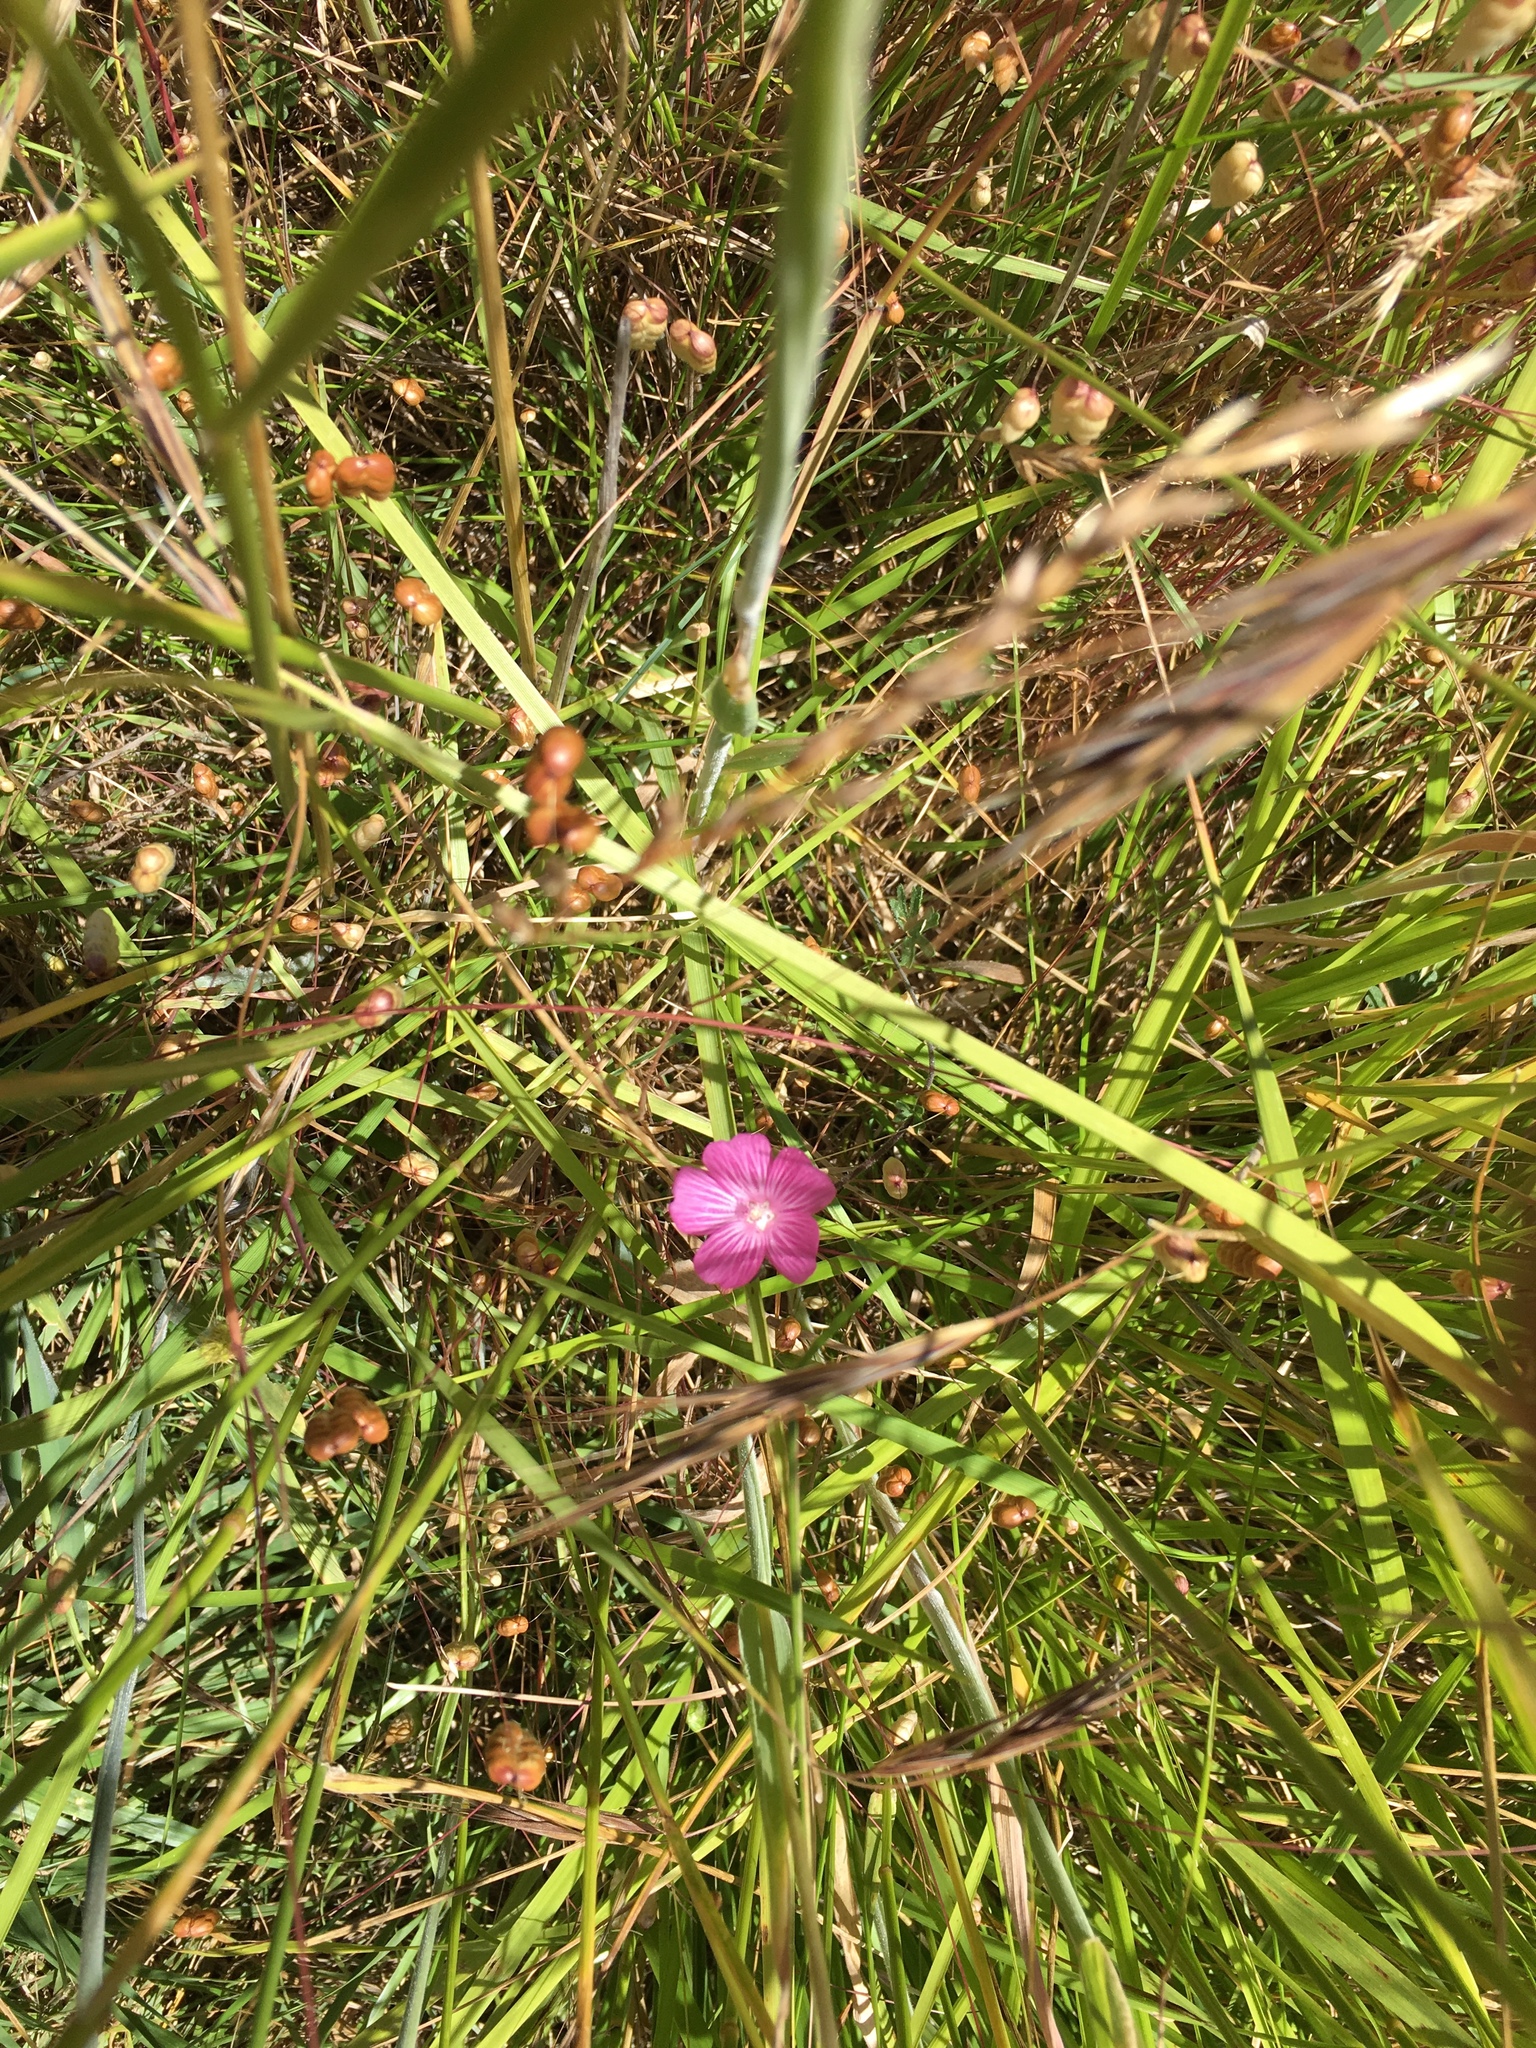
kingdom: Plantae
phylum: Tracheophyta
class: Magnoliopsida
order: Malvales
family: Malvaceae
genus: Sidalcea
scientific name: Sidalcea malviflora
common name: Greek mallow
